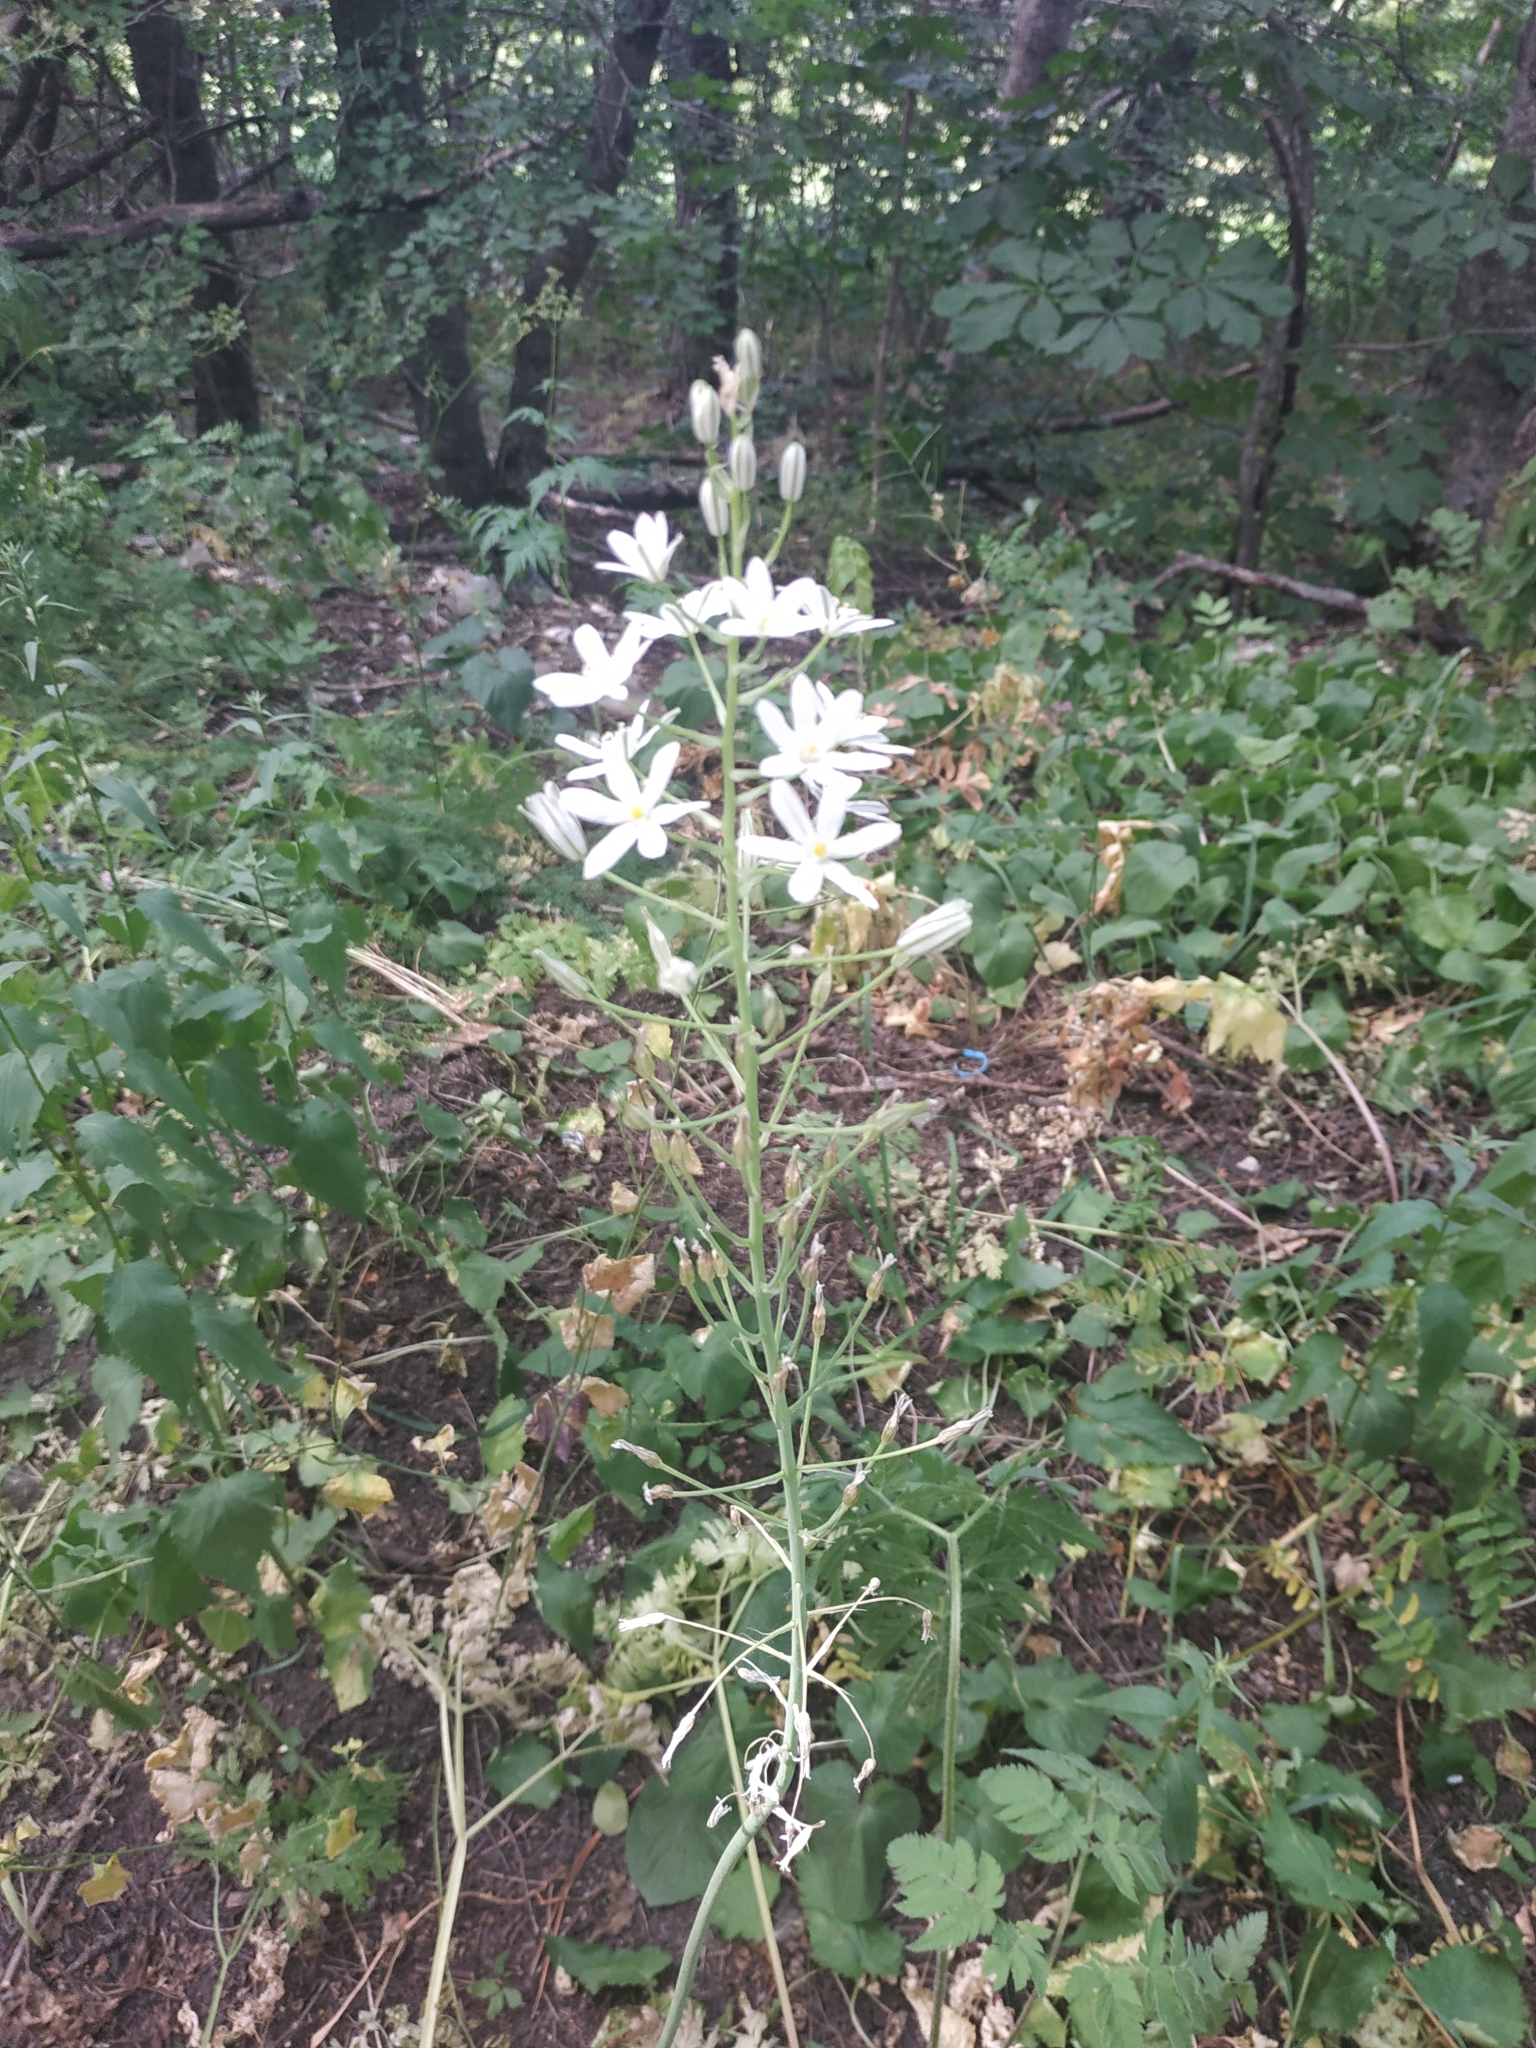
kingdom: Plantae
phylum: Tracheophyta
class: Liliopsida
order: Asparagales
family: Asparagaceae
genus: Ornithogalum
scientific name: Ornithogalum ponticum
